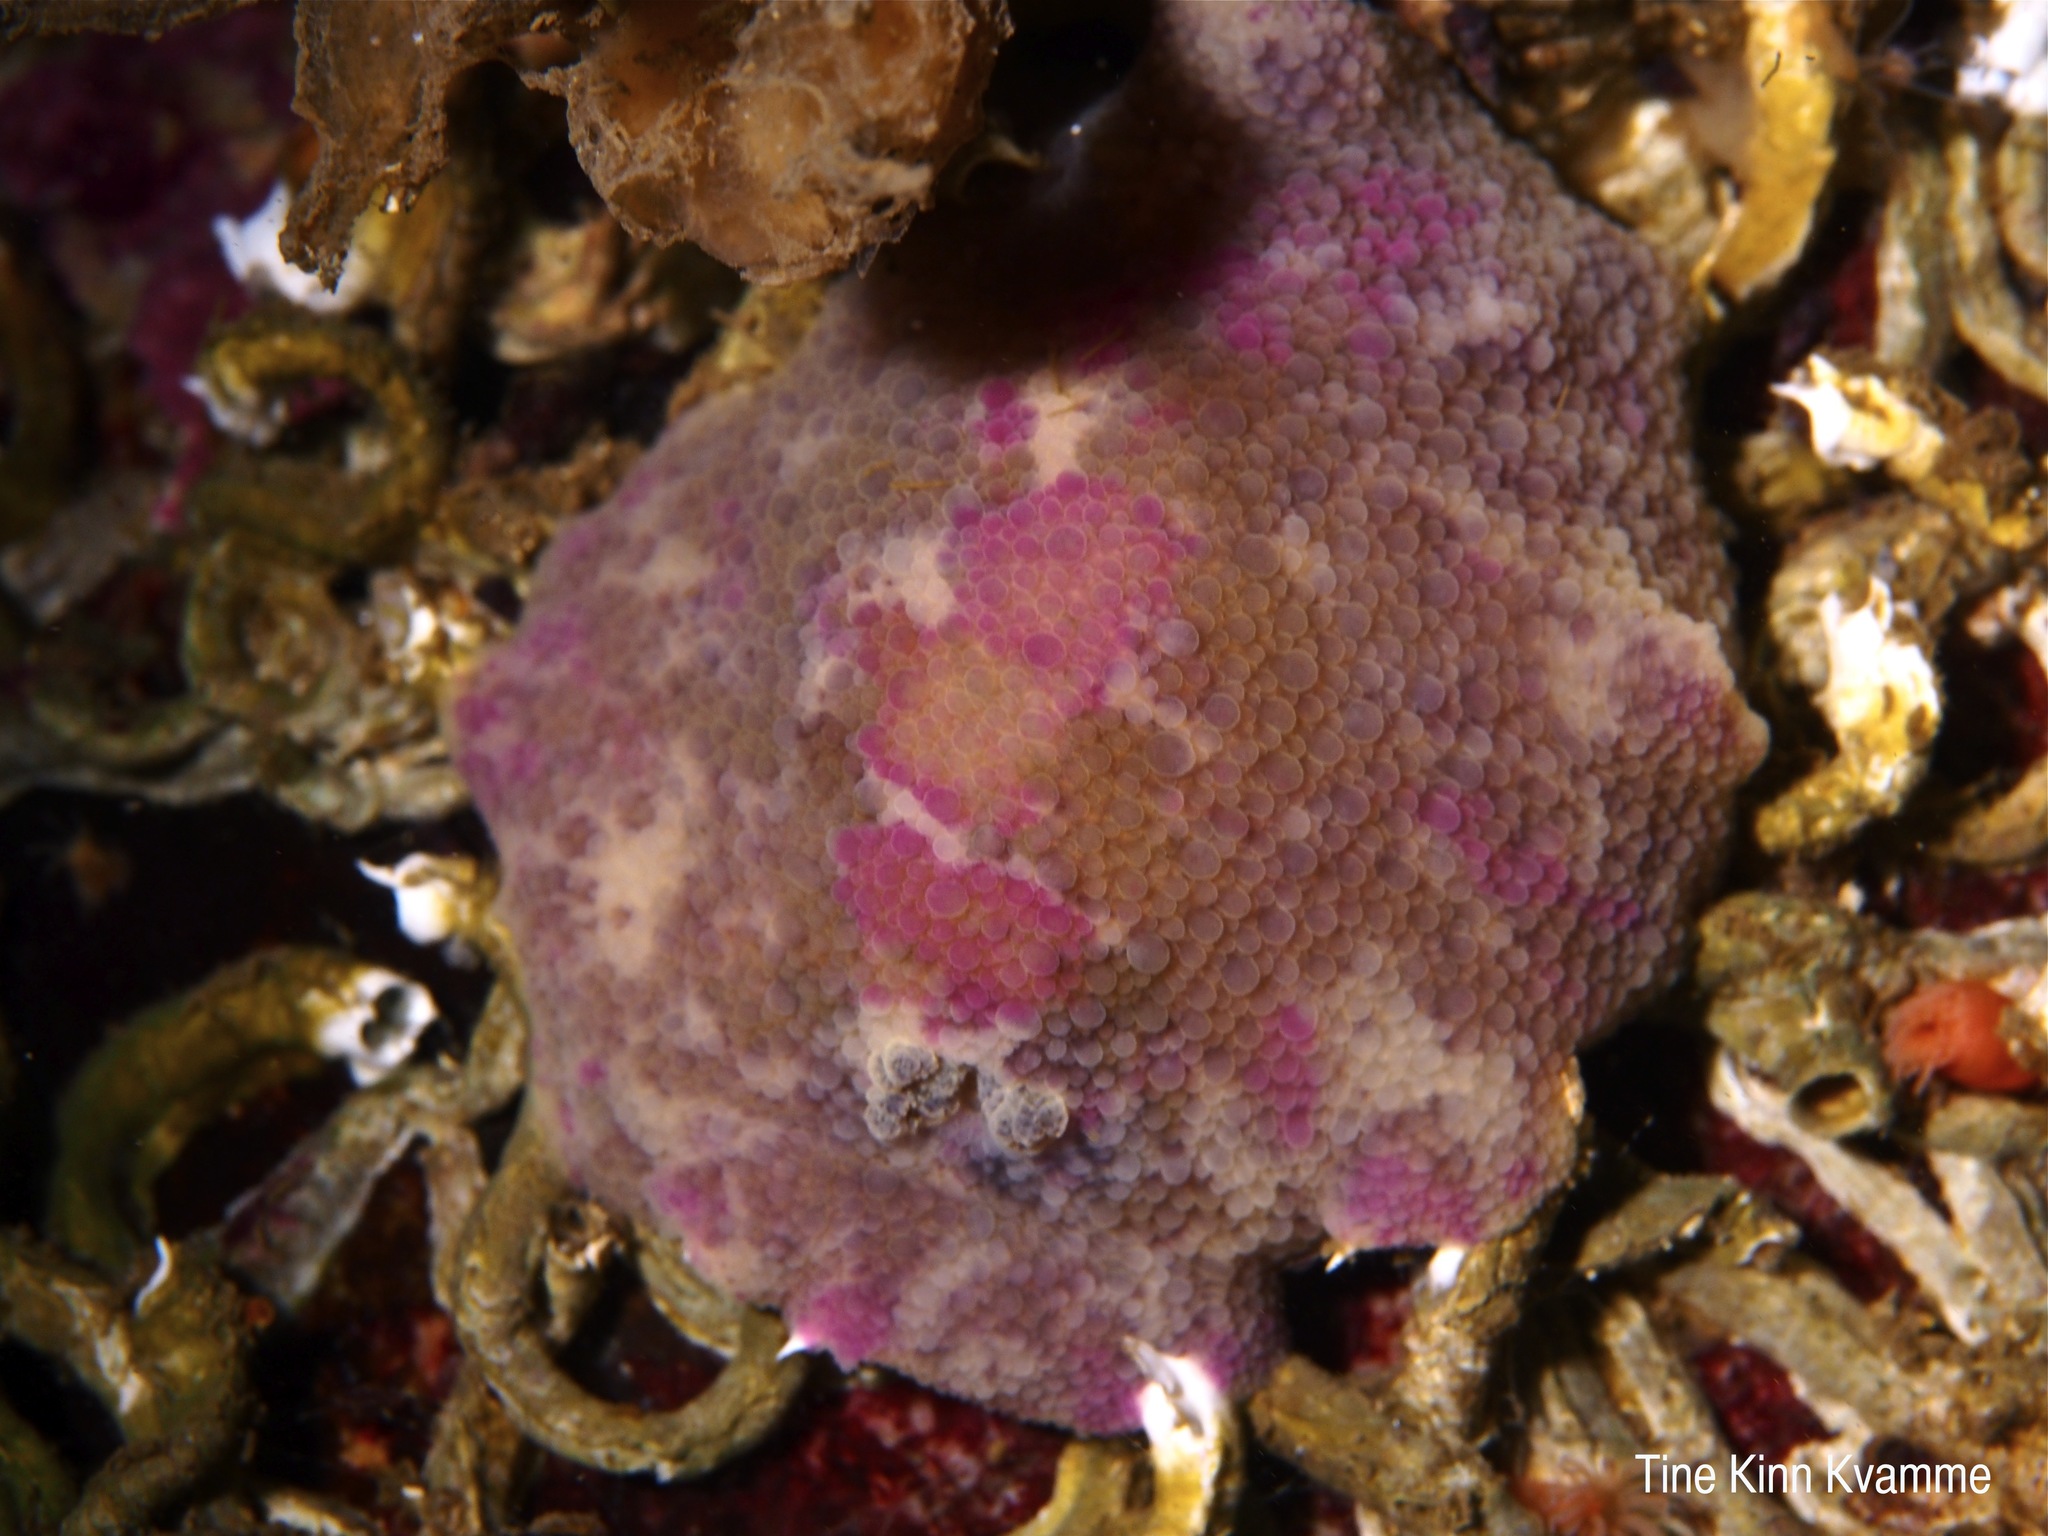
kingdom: Animalia
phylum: Mollusca
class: Gastropoda
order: Nudibranchia
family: Dorididae
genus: Doris
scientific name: Doris pseudoargus
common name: Sea lemon
